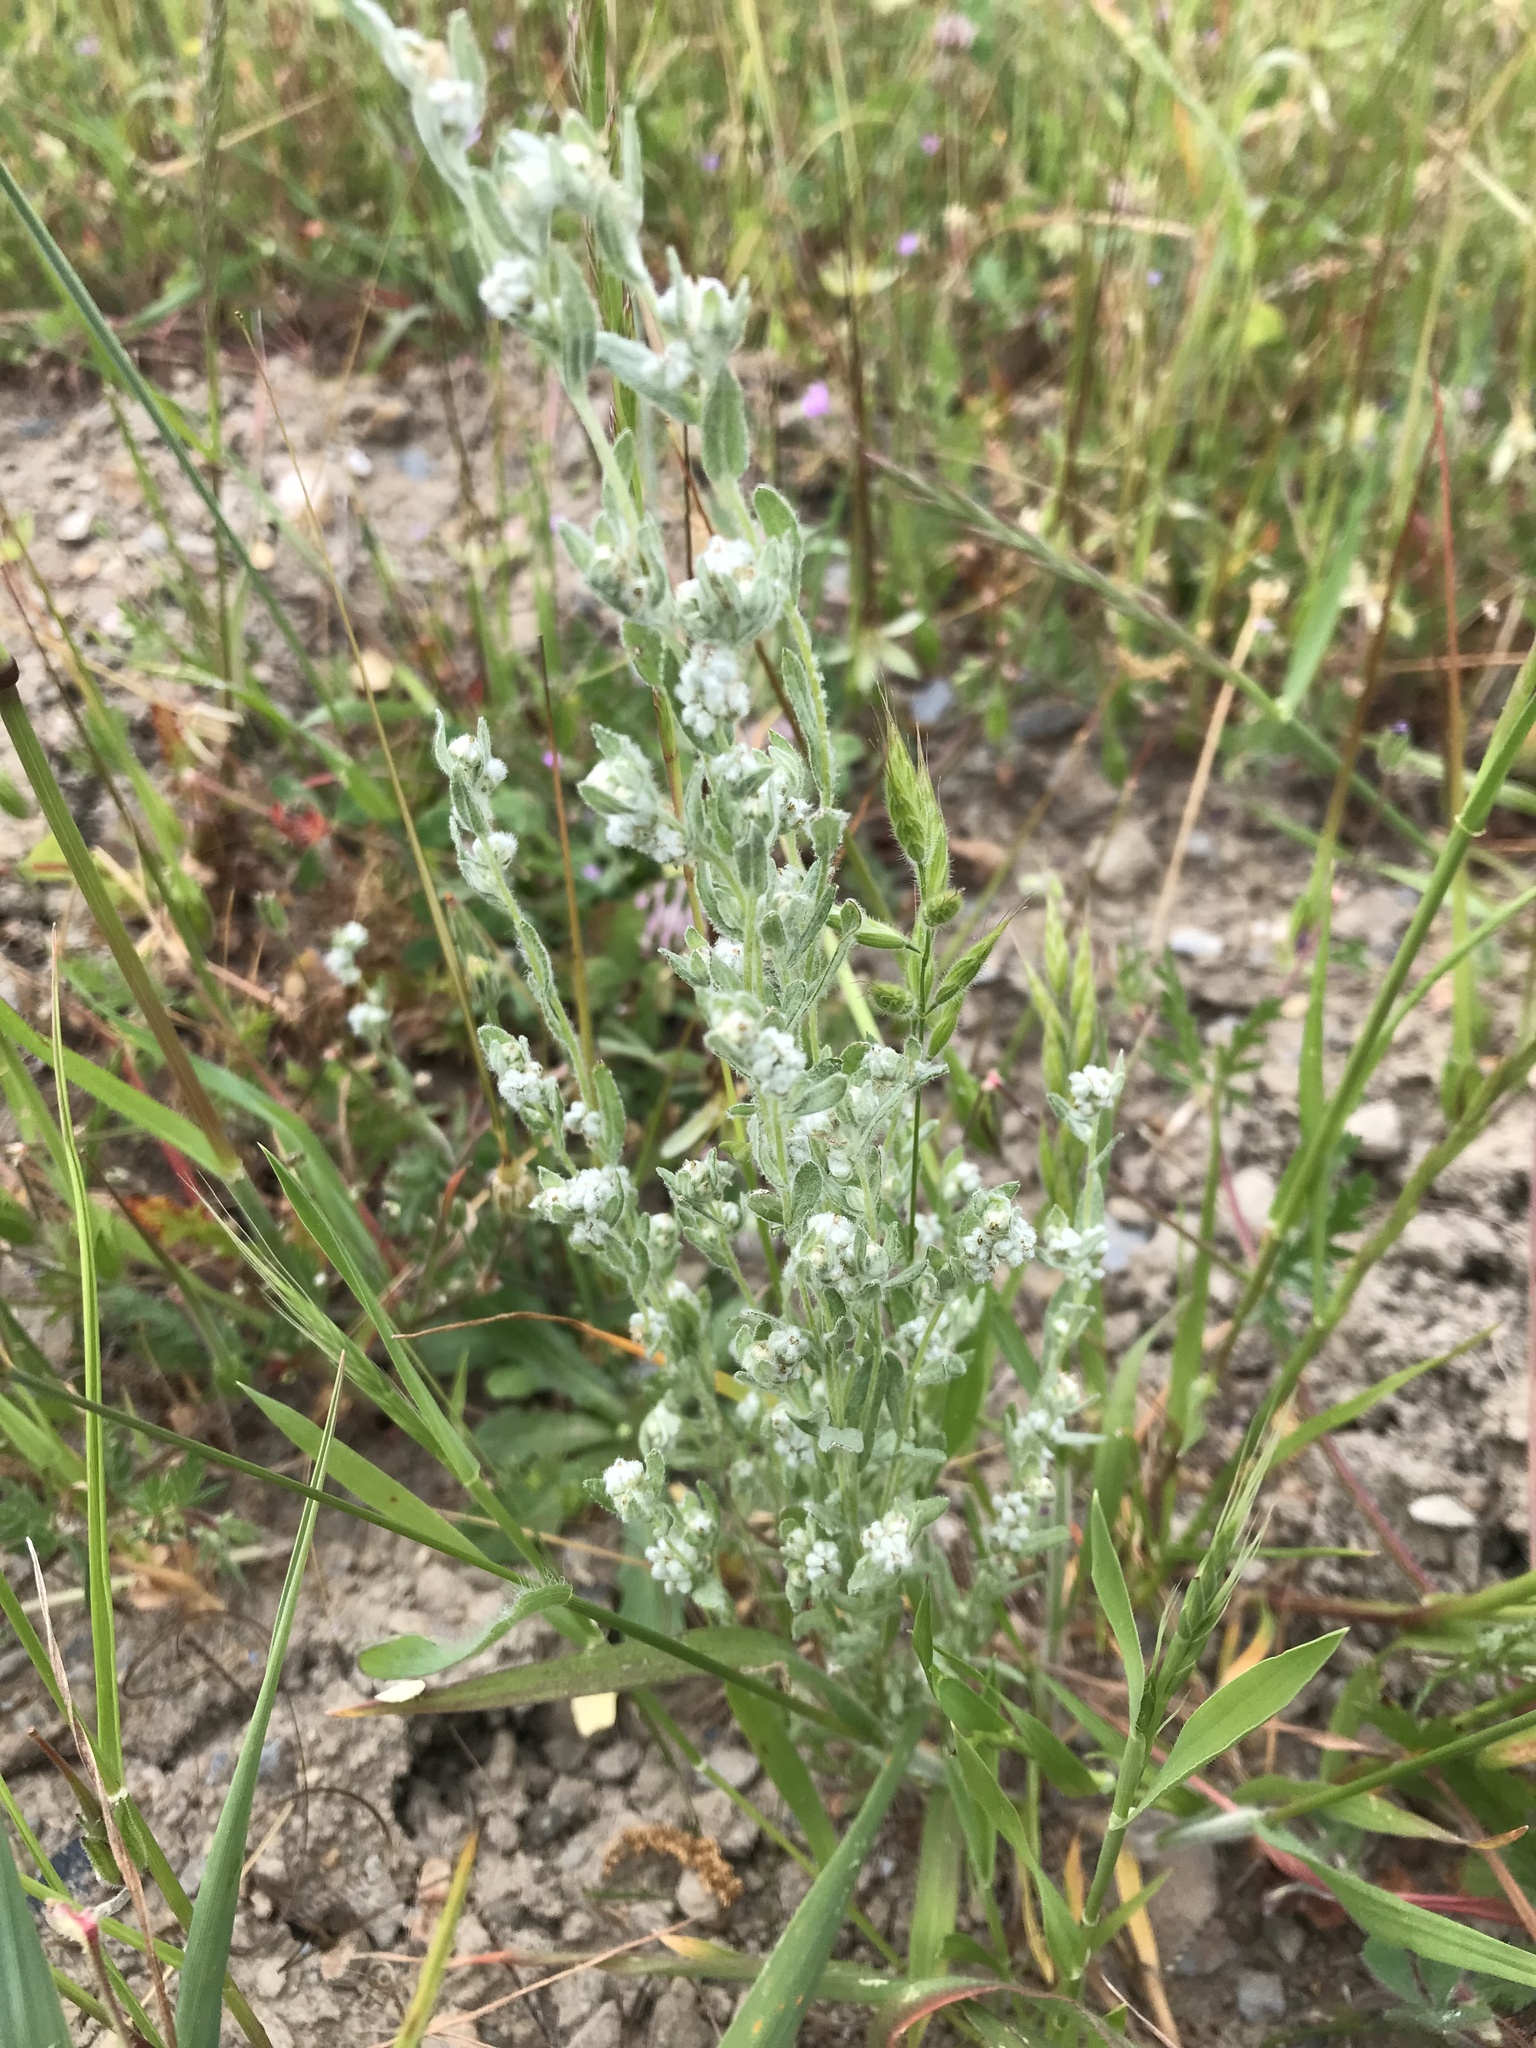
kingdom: Plantae
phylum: Tracheophyta
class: Magnoliopsida
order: Asterales
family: Asteraceae
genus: Logfia
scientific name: Logfia californica
